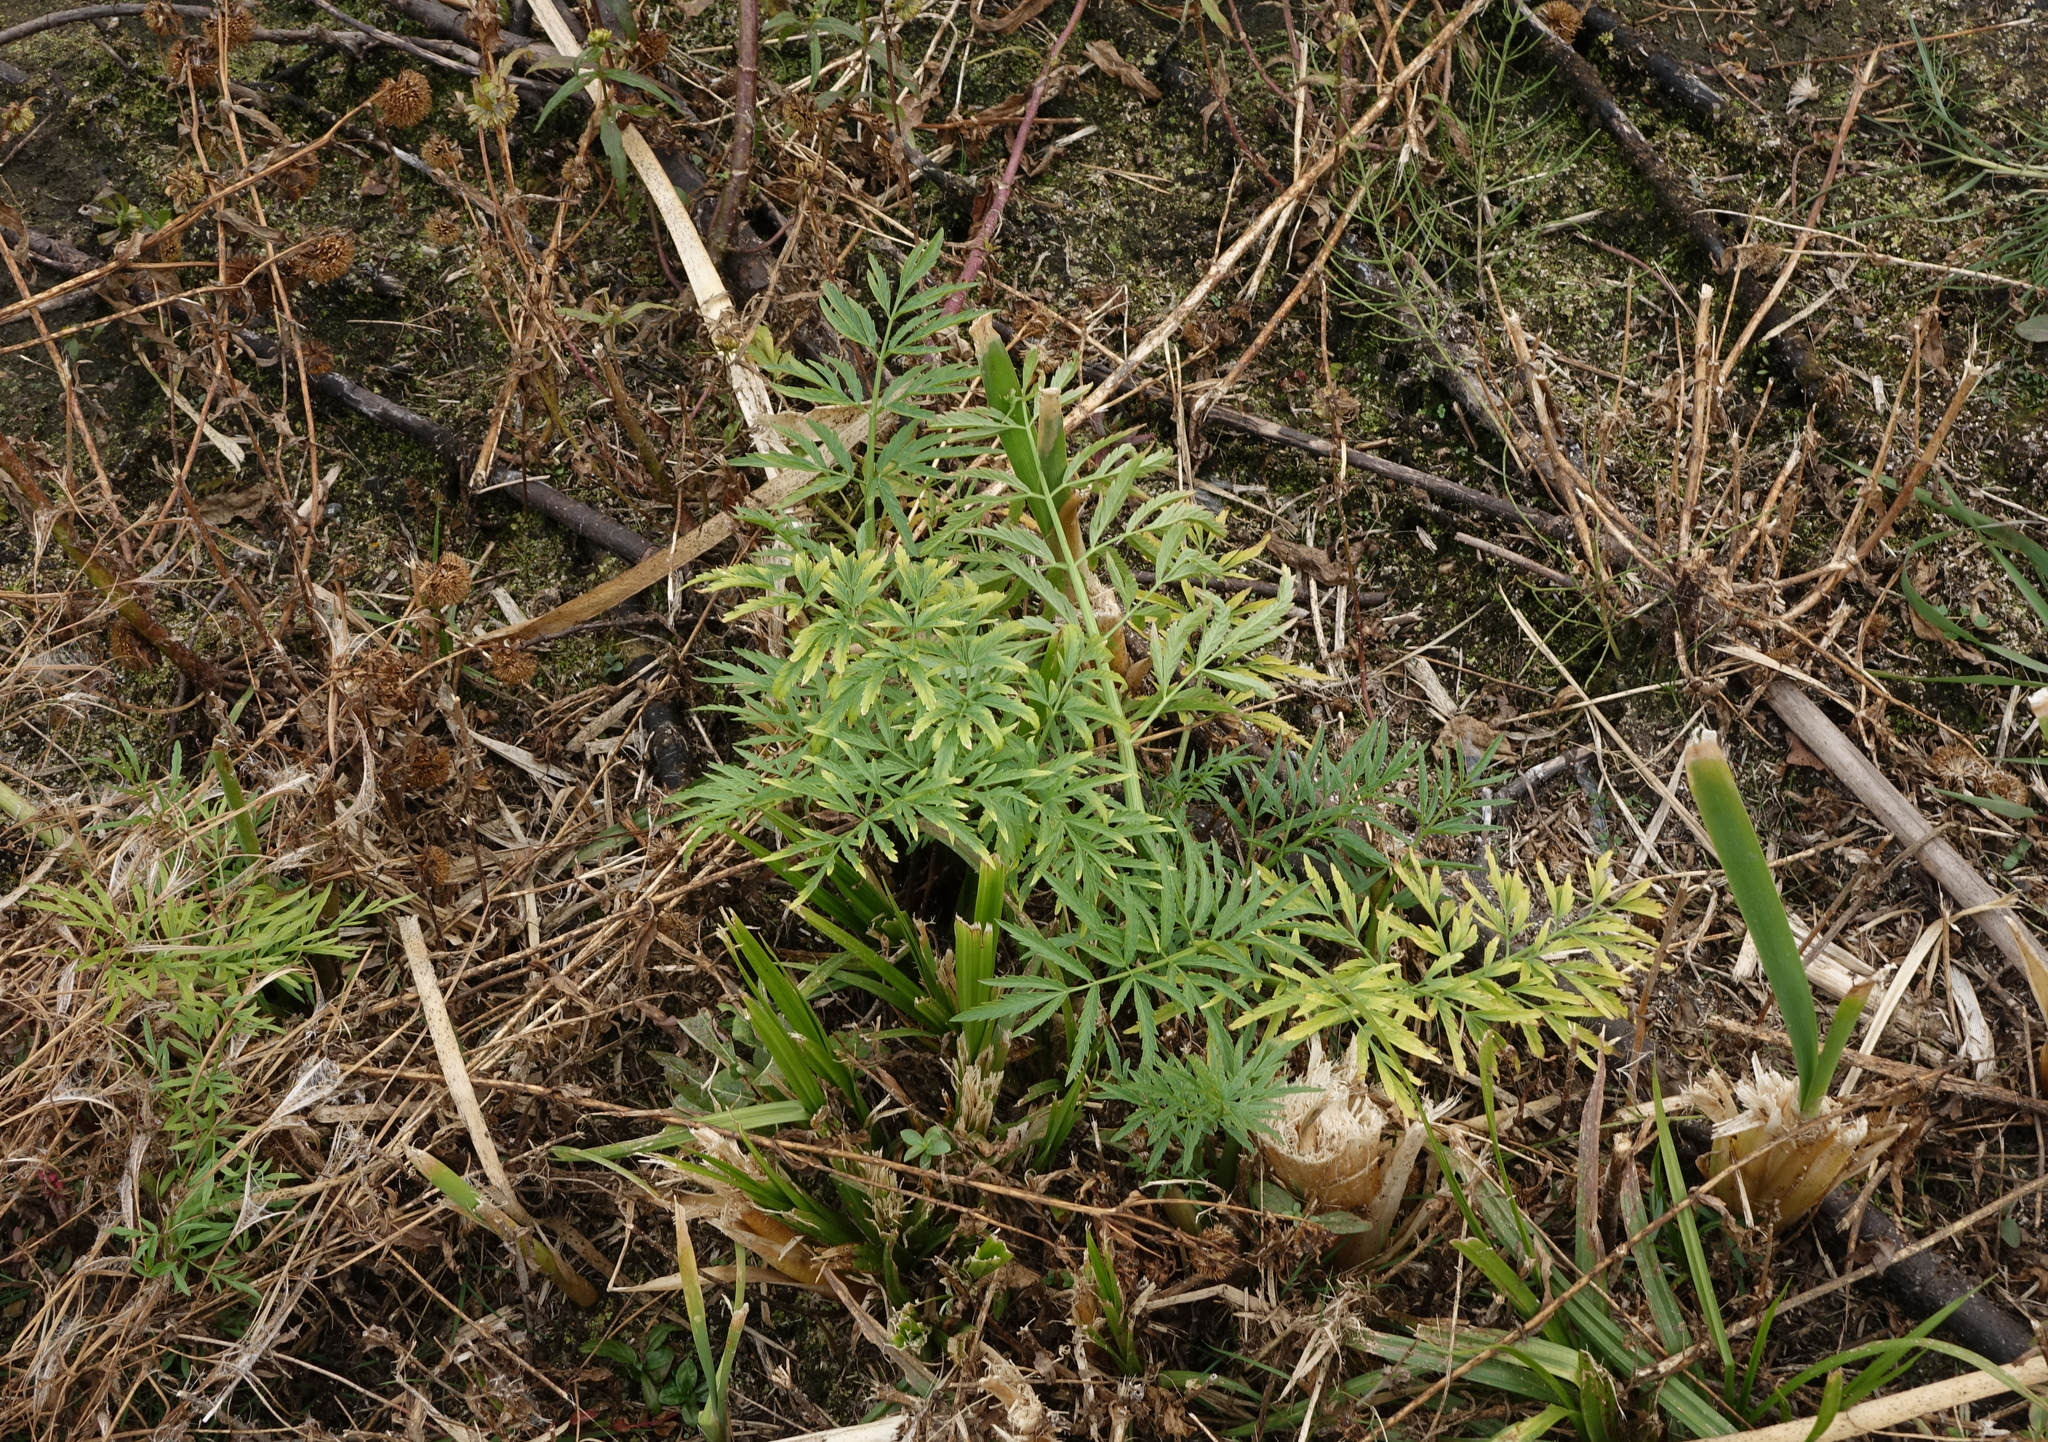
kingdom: Plantae
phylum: Tracheophyta
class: Magnoliopsida
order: Apiales
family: Apiaceae
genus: Cicuta
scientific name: Cicuta virosa
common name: Cowbane
